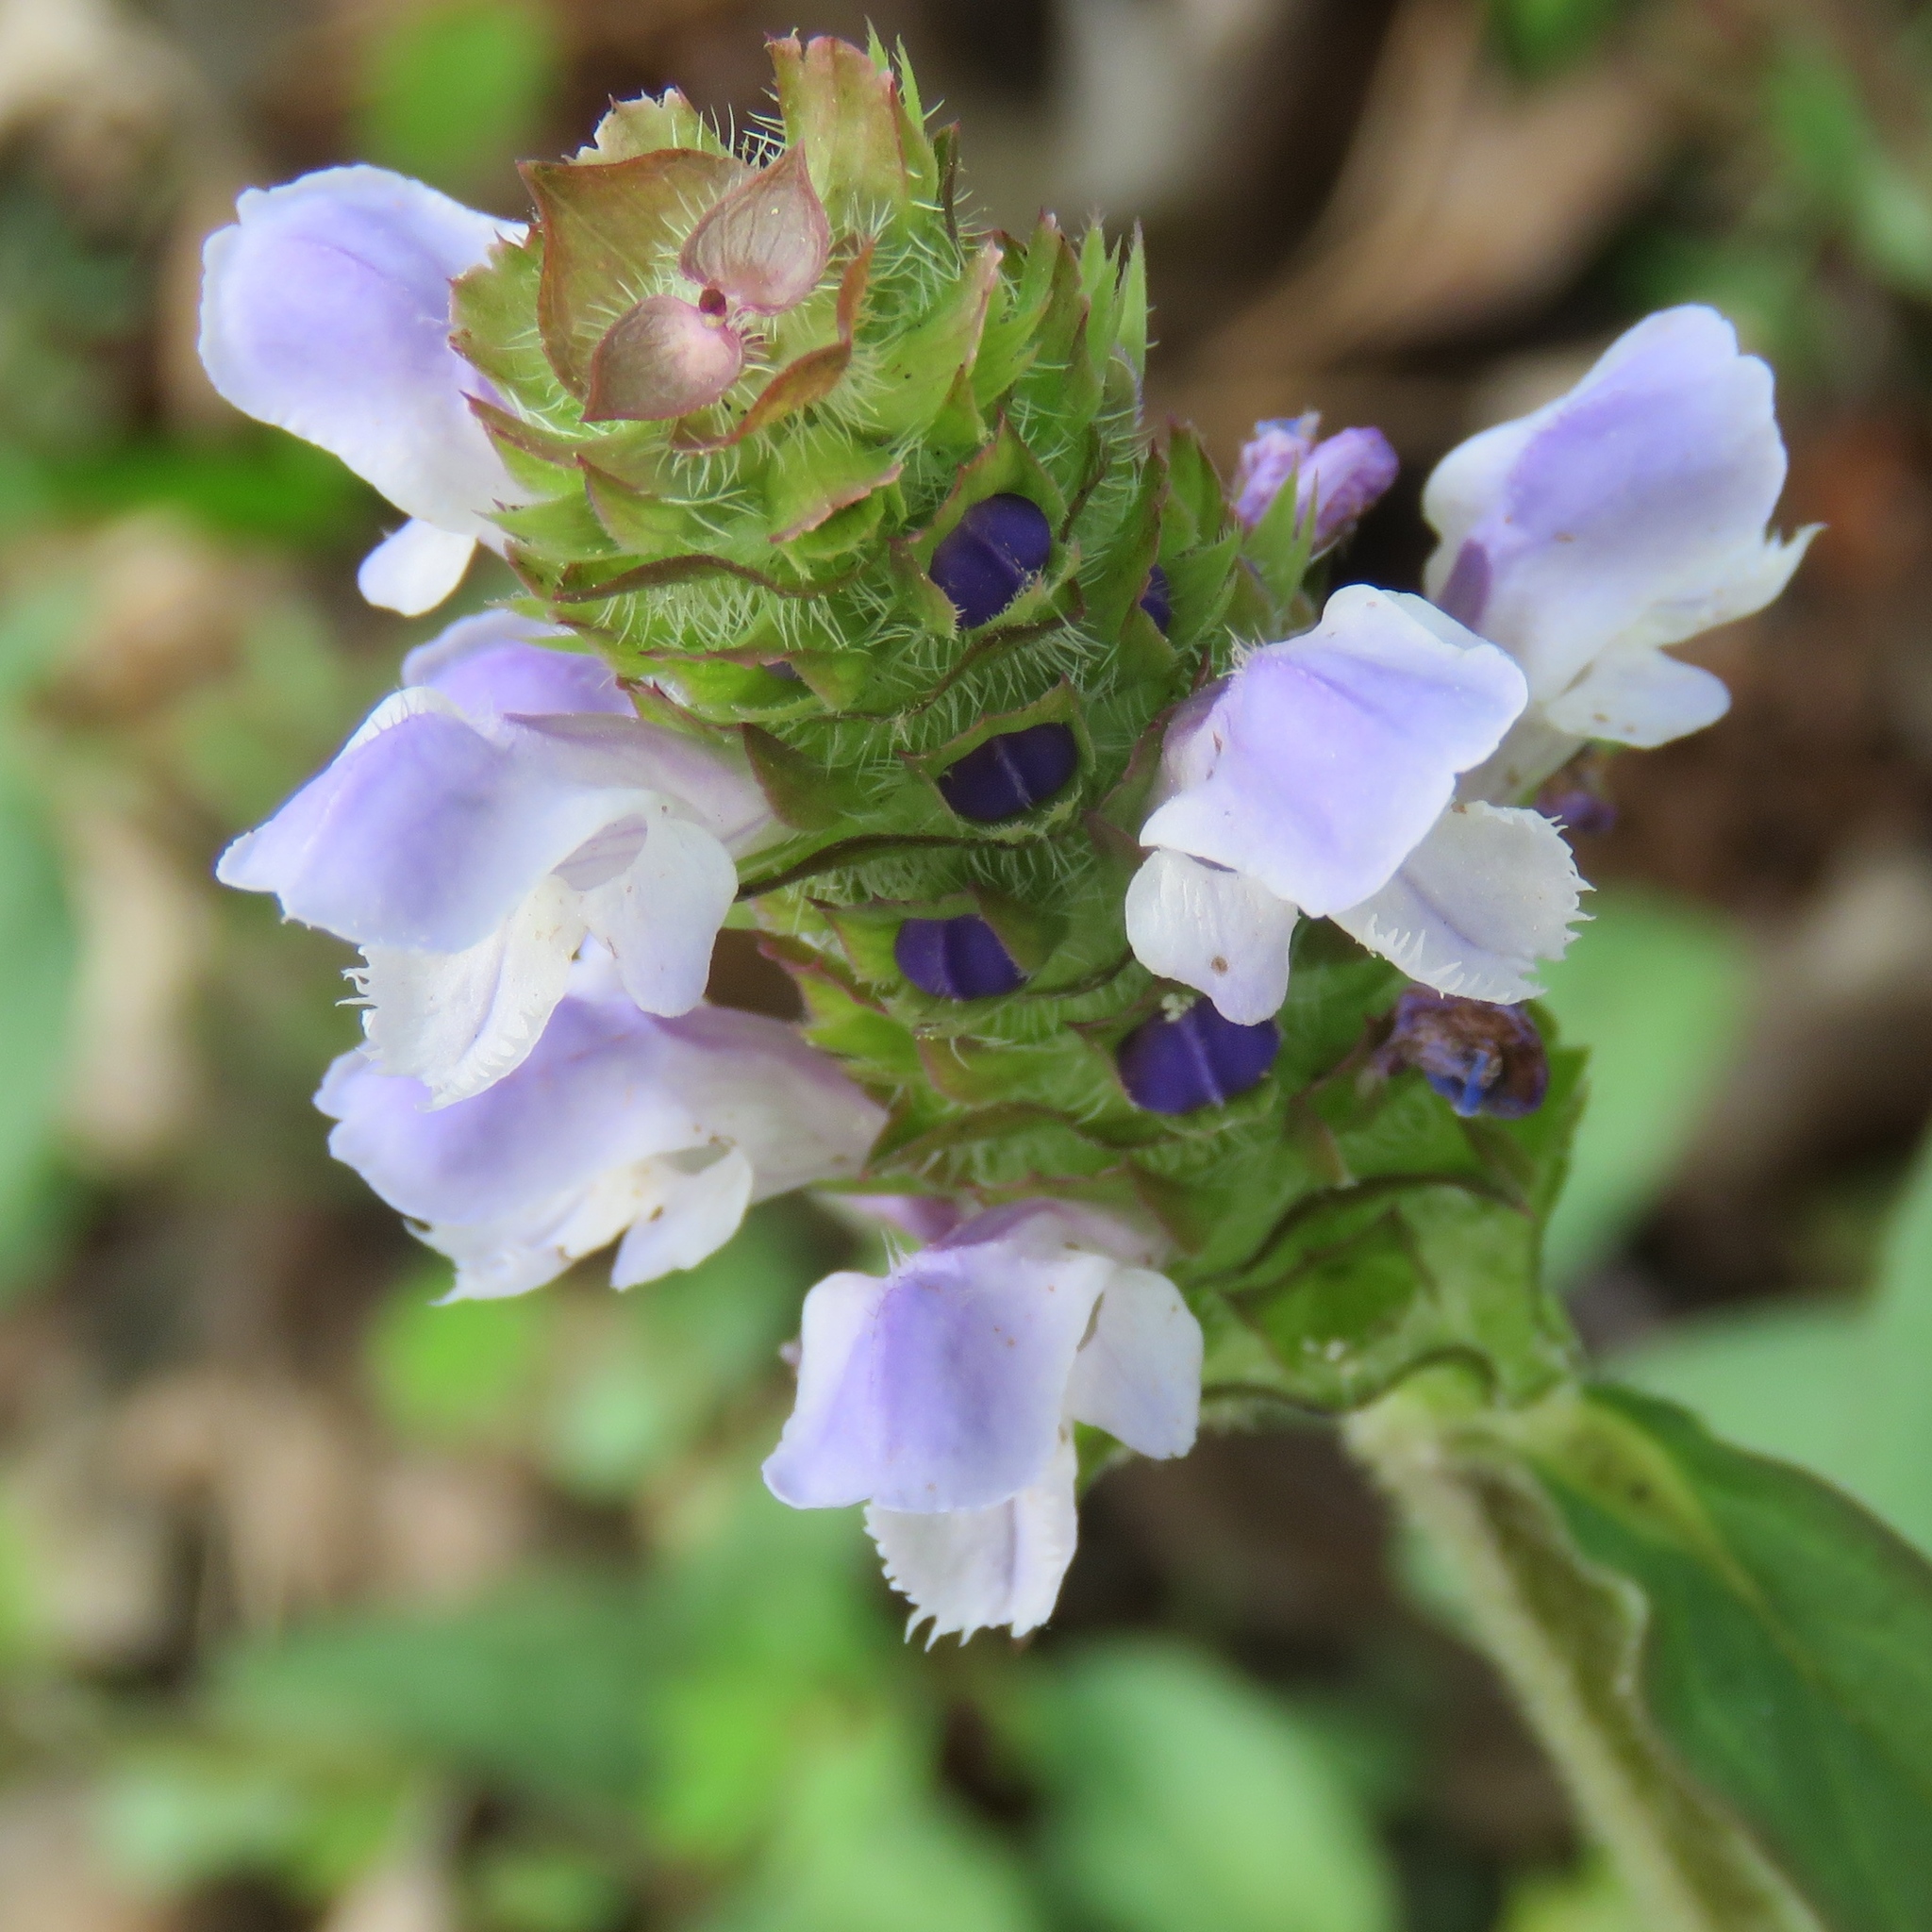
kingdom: Plantae
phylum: Tracheophyta
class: Magnoliopsida
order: Lamiales
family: Lamiaceae
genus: Prunella
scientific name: Prunella vulgaris
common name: Heal-all
